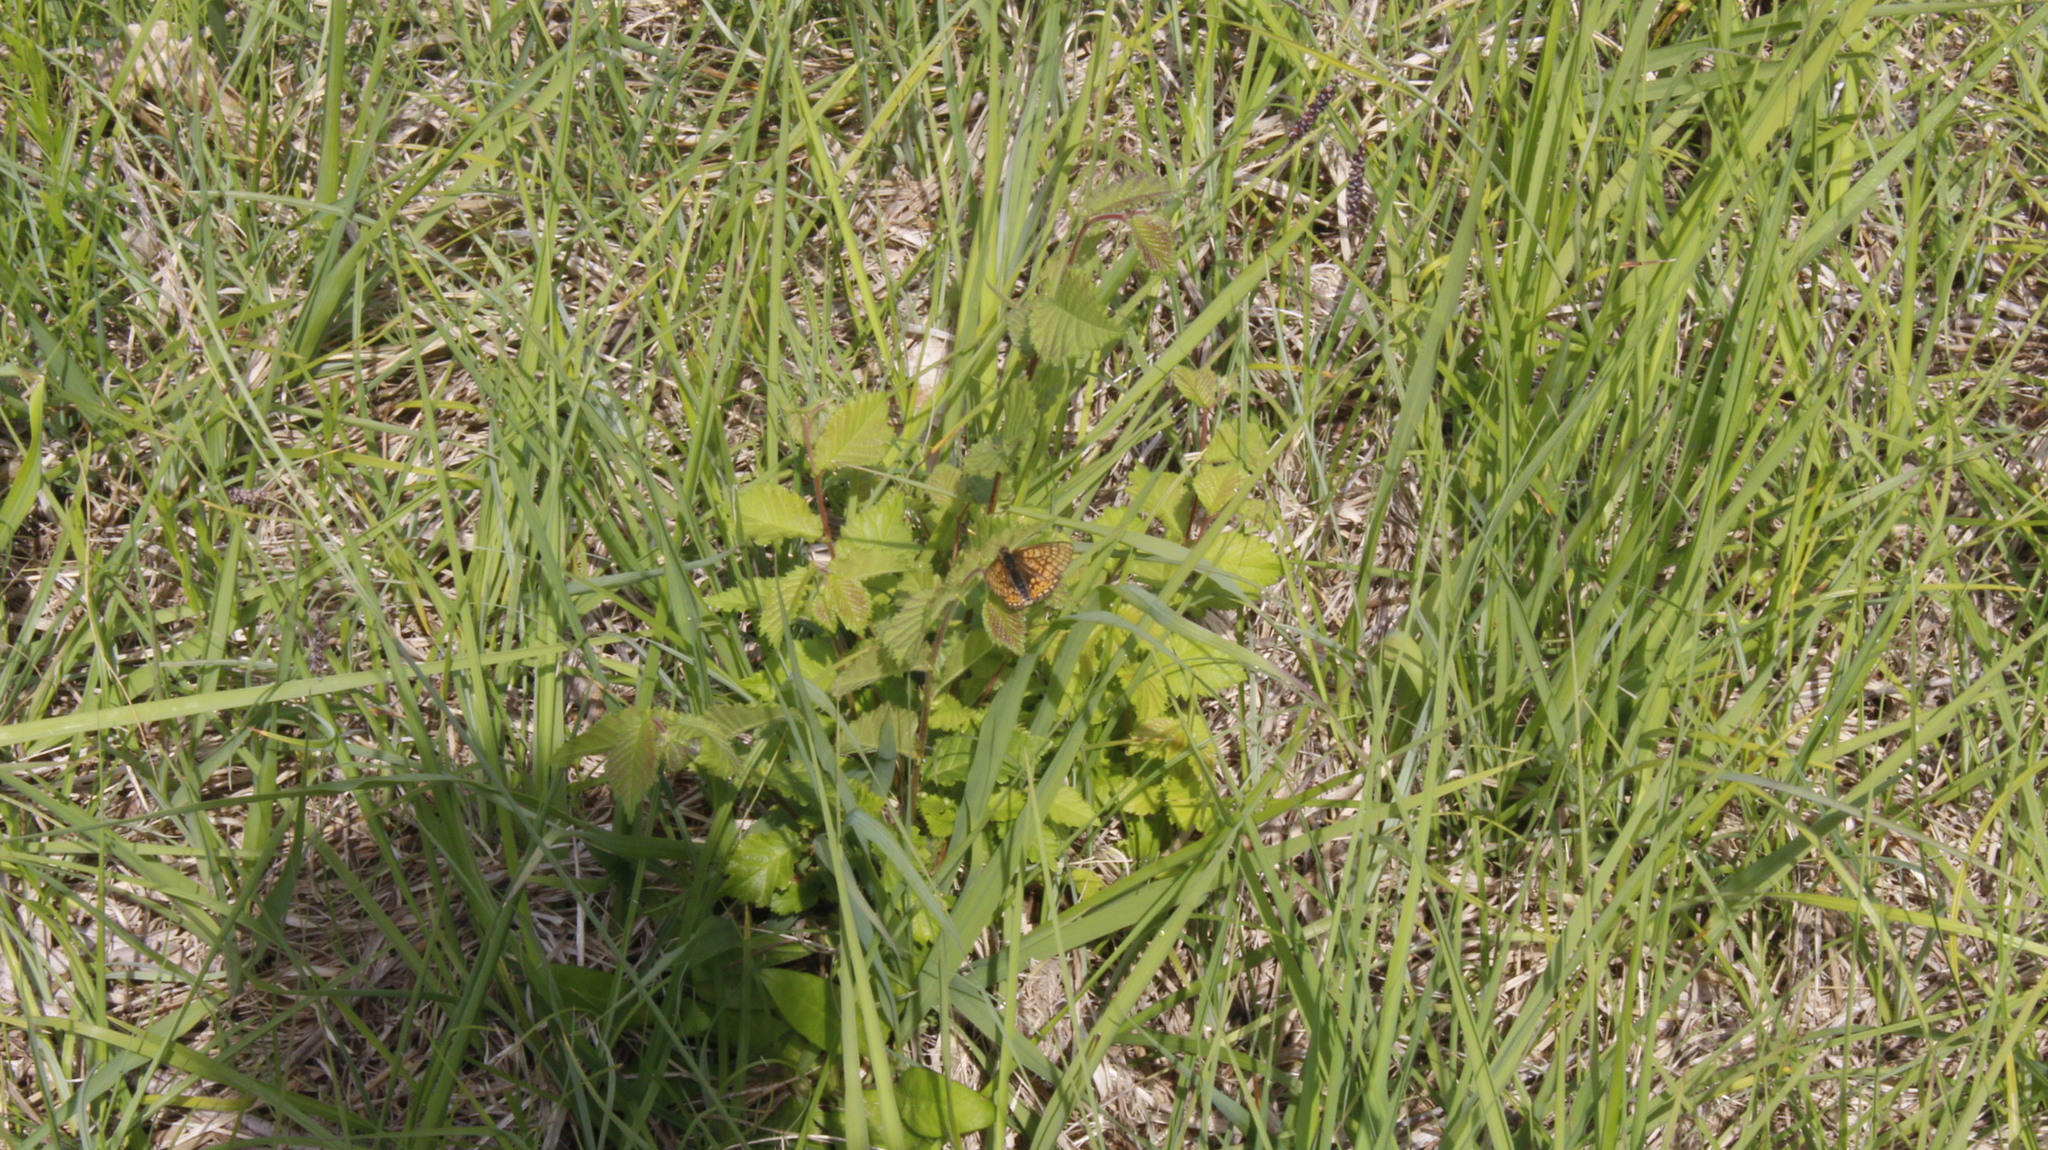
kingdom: Animalia
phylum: Arthropoda
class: Insecta
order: Lepidoptera
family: Nymphalidae
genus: Euphydryas
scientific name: Euphydryas aurinia
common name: Marsh fritillary
